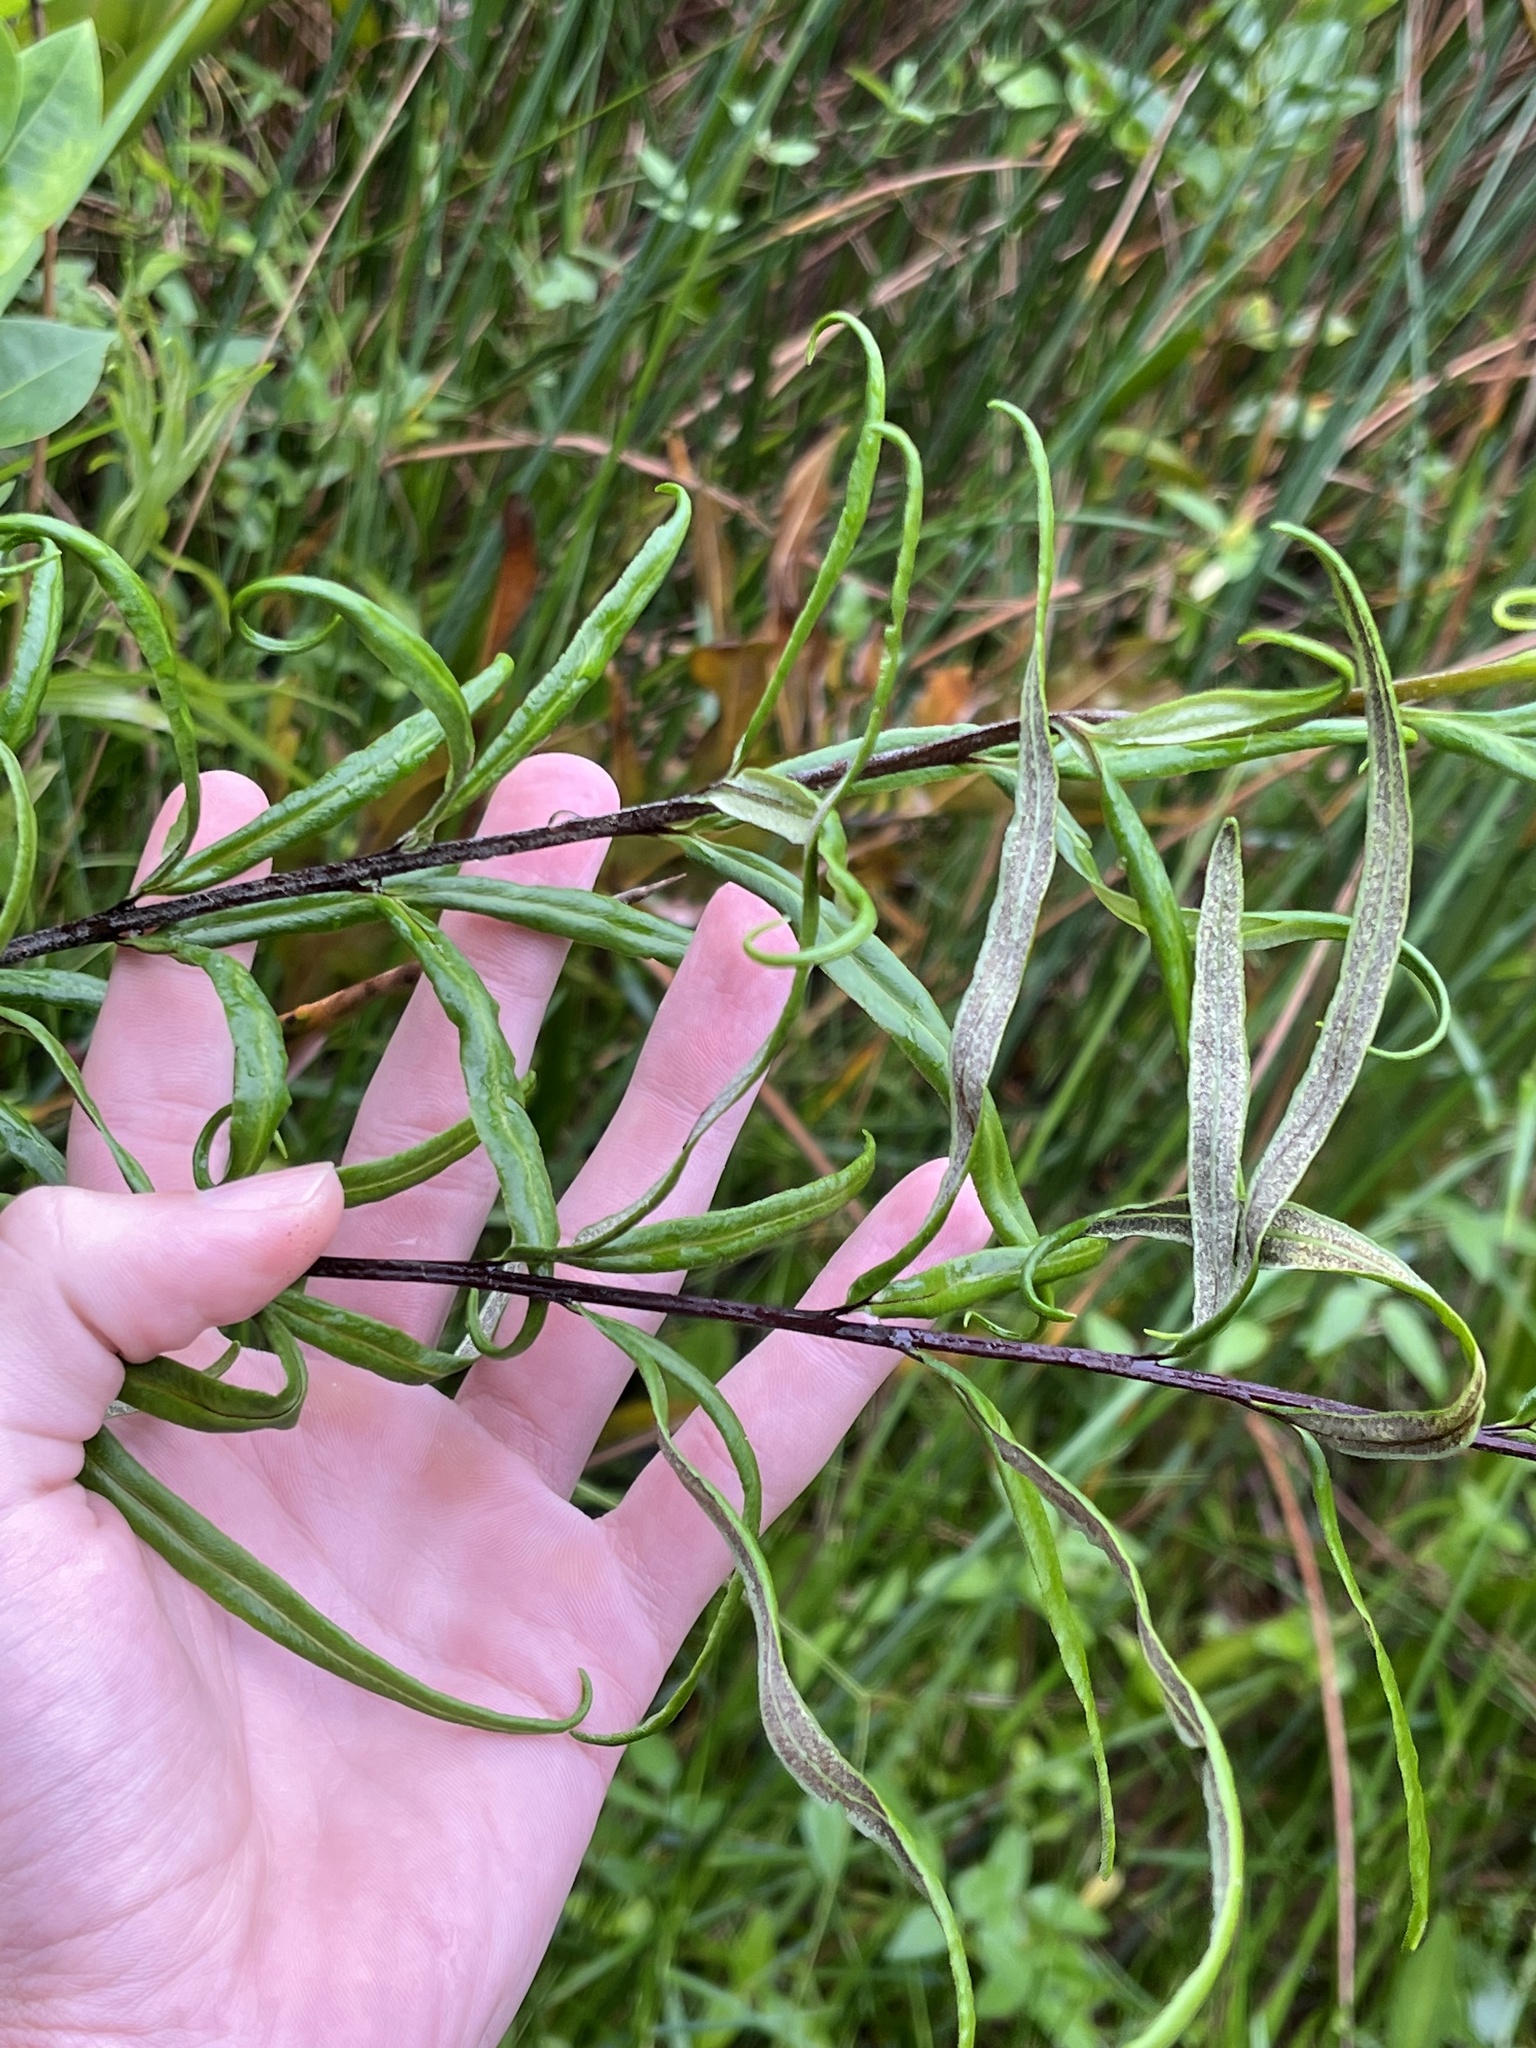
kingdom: Plantae
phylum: Tracheophyta
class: Polypodiopsida
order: Polypodiales
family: Pteridaceae
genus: Pityrogramma
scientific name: Pityrogramma trifoliata
